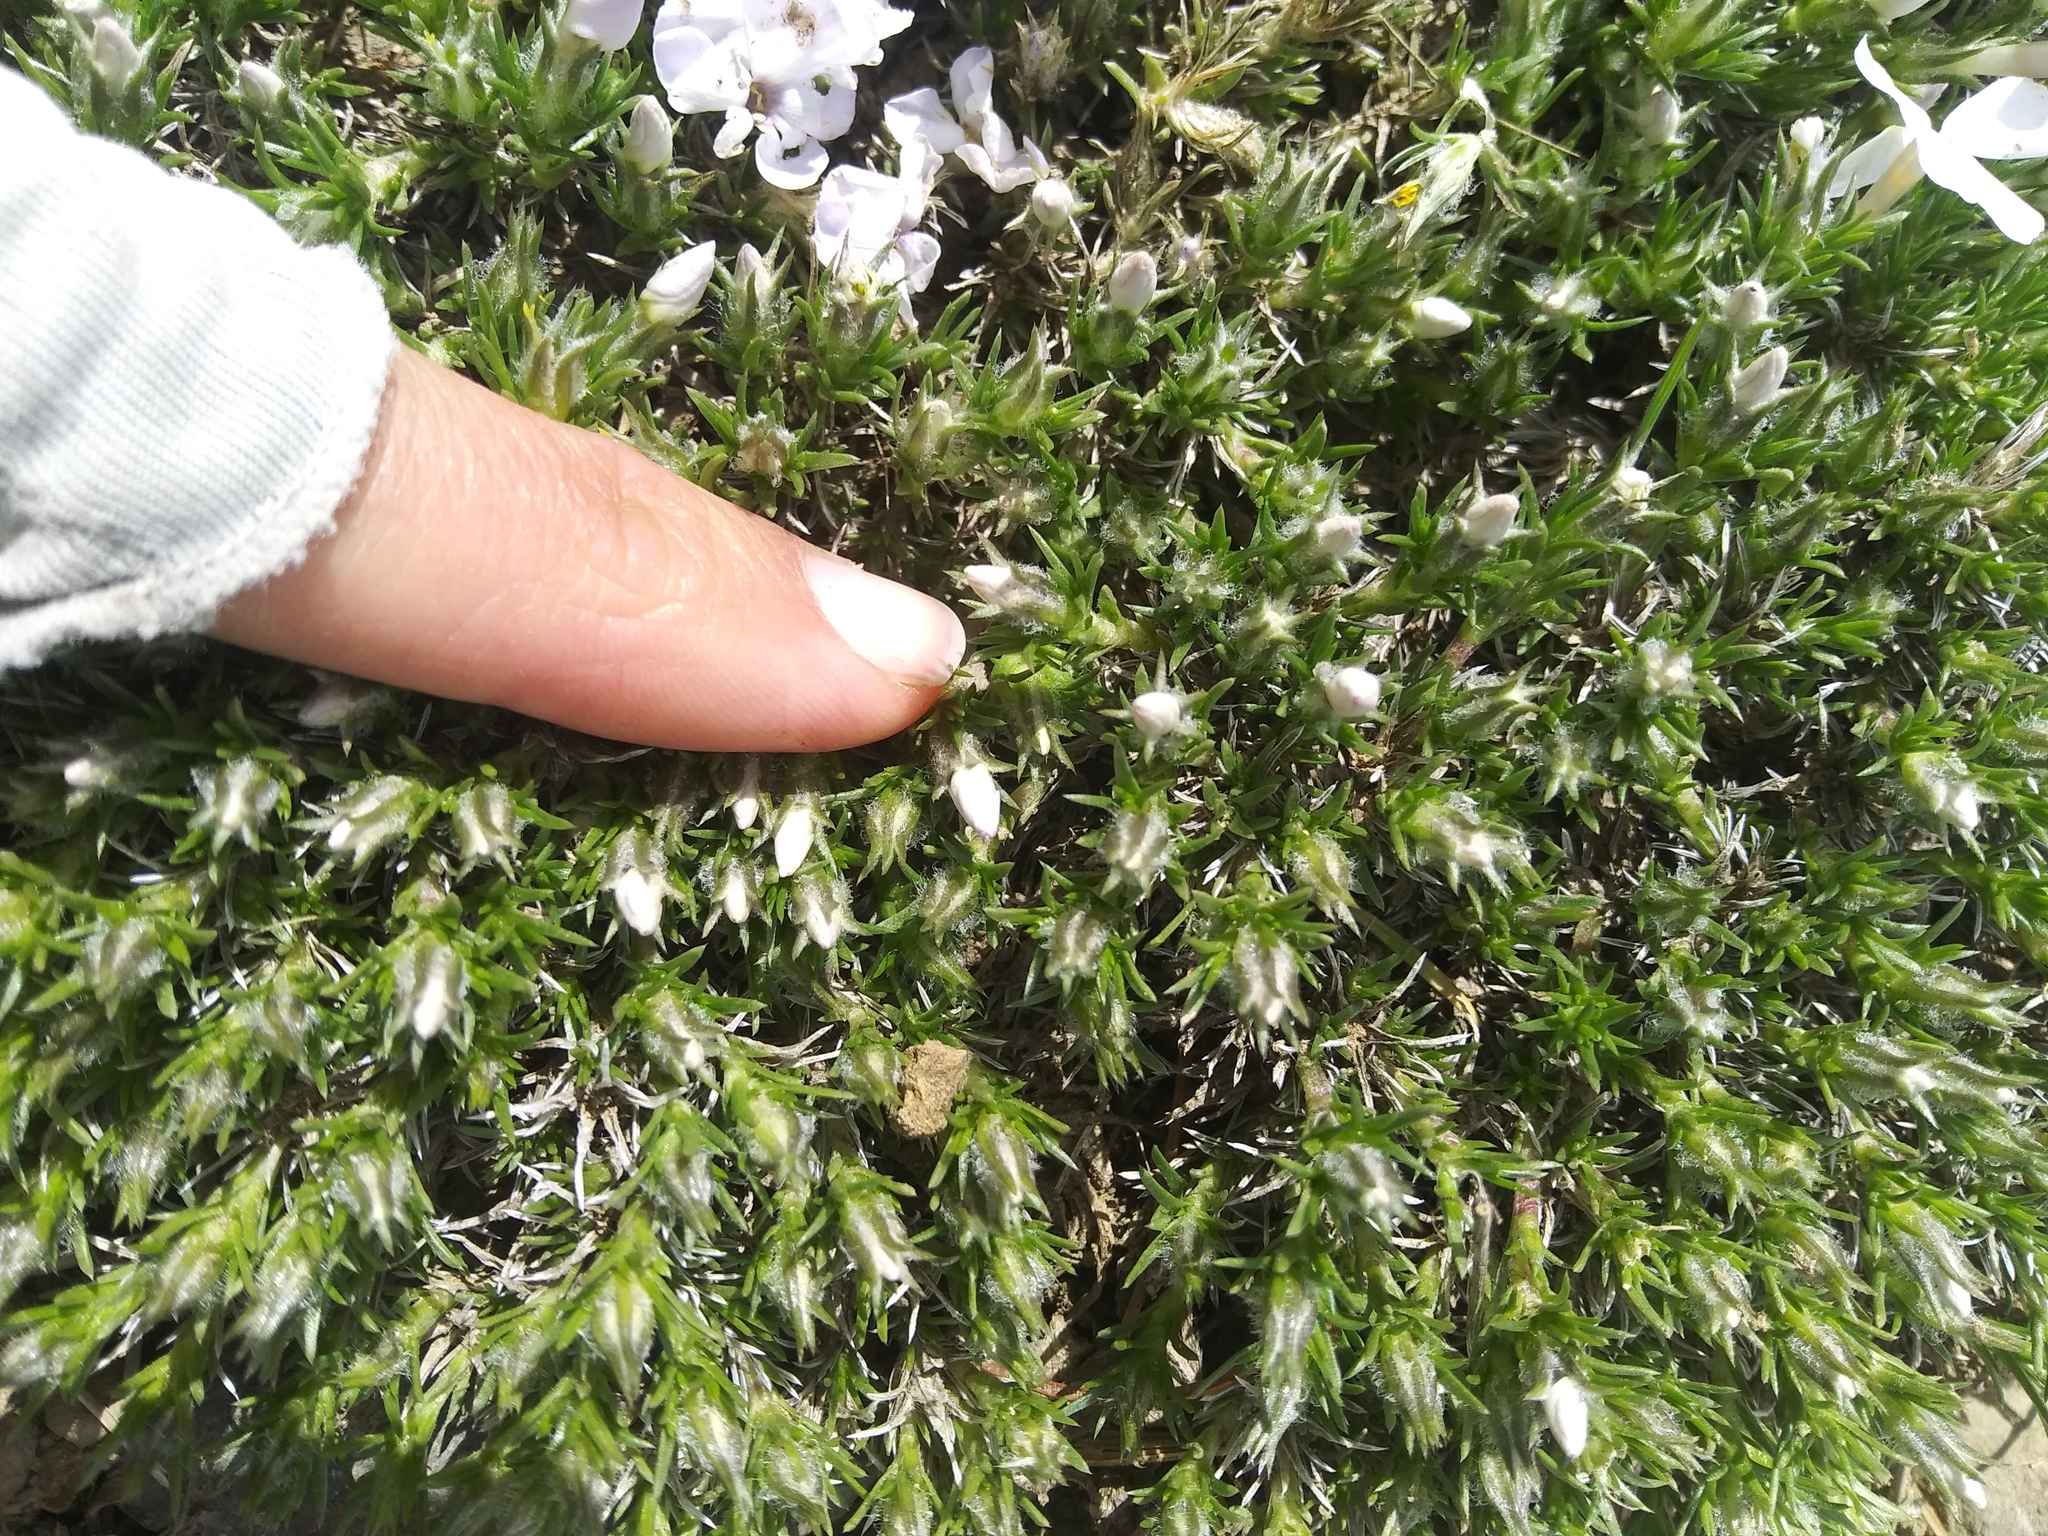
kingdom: Plantae
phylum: Tracheophyta
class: Magnoliopsida
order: Ericales
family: Polemoniaceae
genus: Phlox
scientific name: Phlox hoodii
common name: Moss phlox
